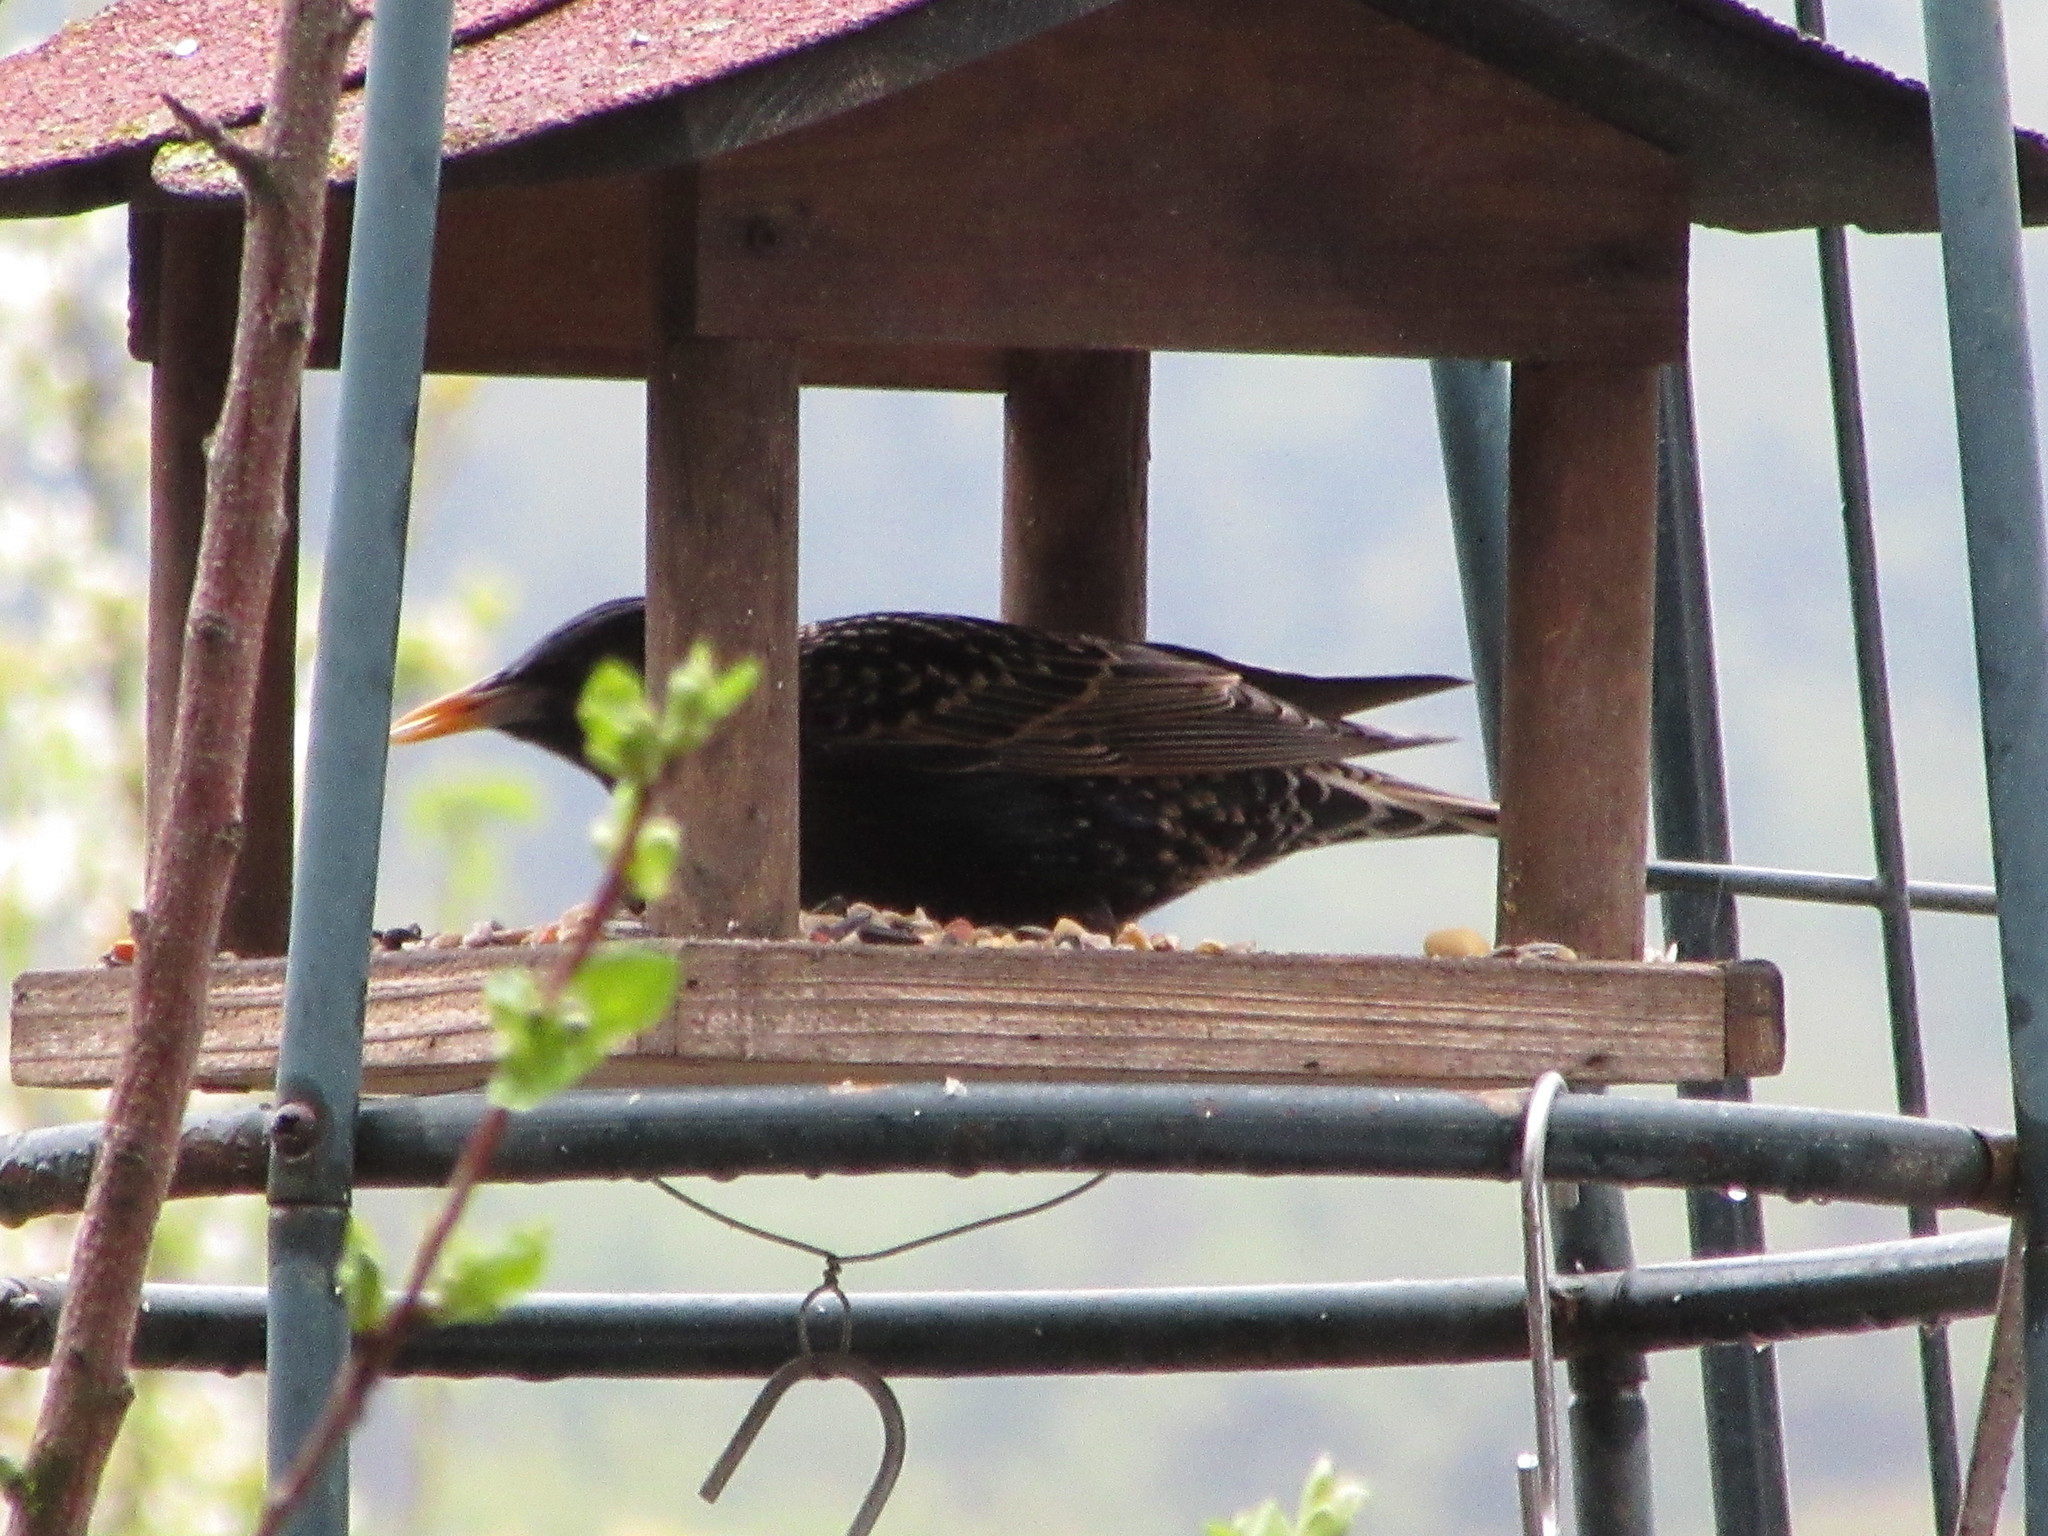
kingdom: Animalia
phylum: Chordata
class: Aves
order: Passeriformes
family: Sturnidae
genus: Sturnus
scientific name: Sturnus vulgaris
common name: Common starling
